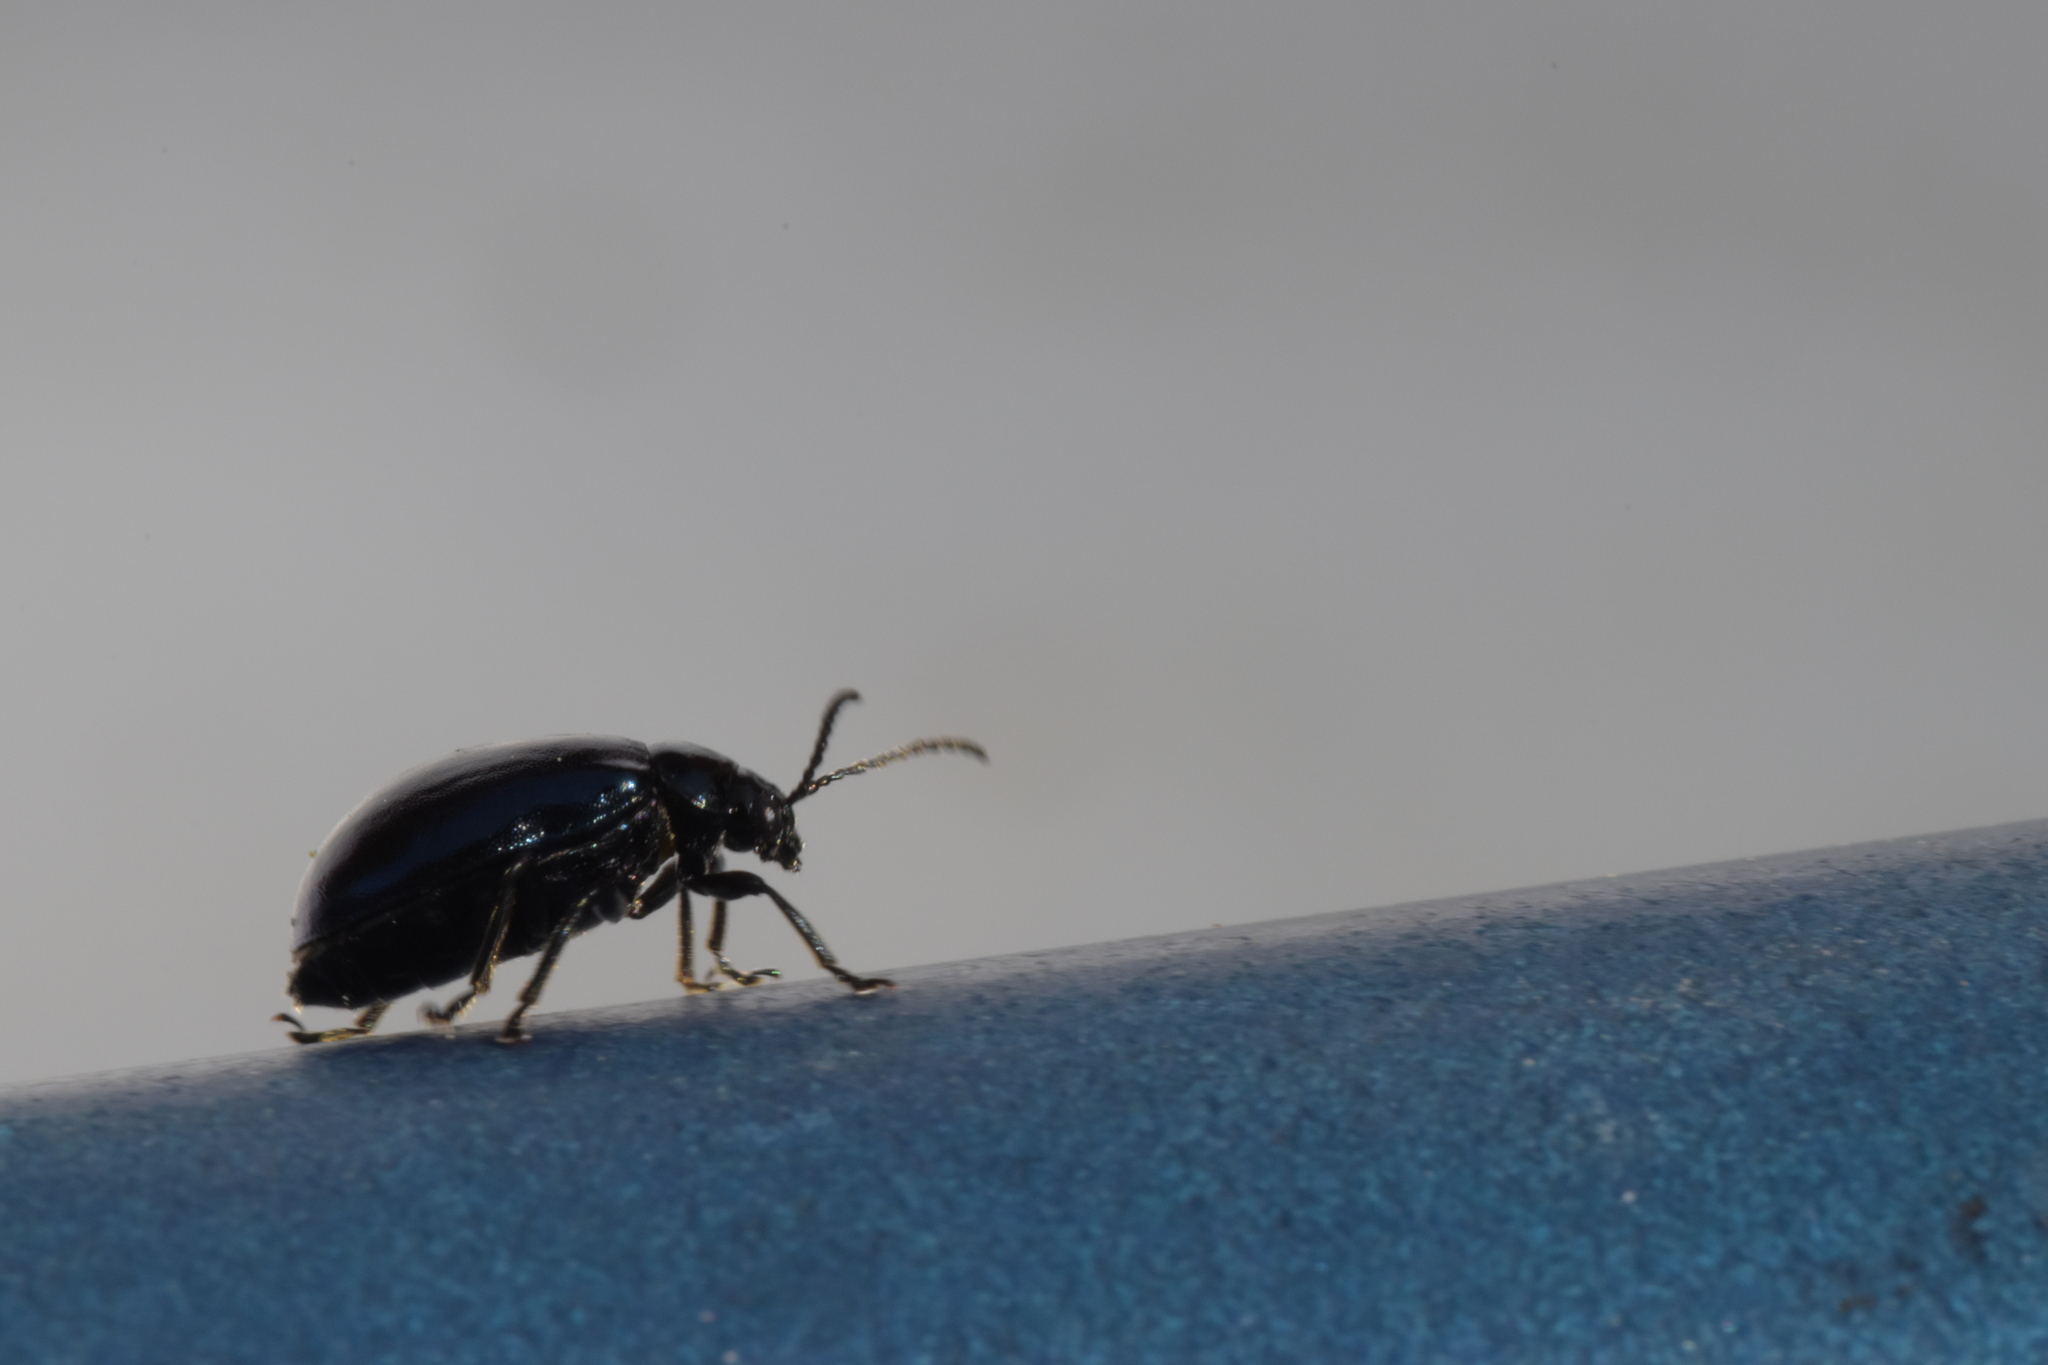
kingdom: Animalia
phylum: Arthropoda
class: Insecta
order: Coleoptera
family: Chrysomelidae
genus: Agelastica
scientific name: Agelastica alni
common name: Alder leaf beetle
